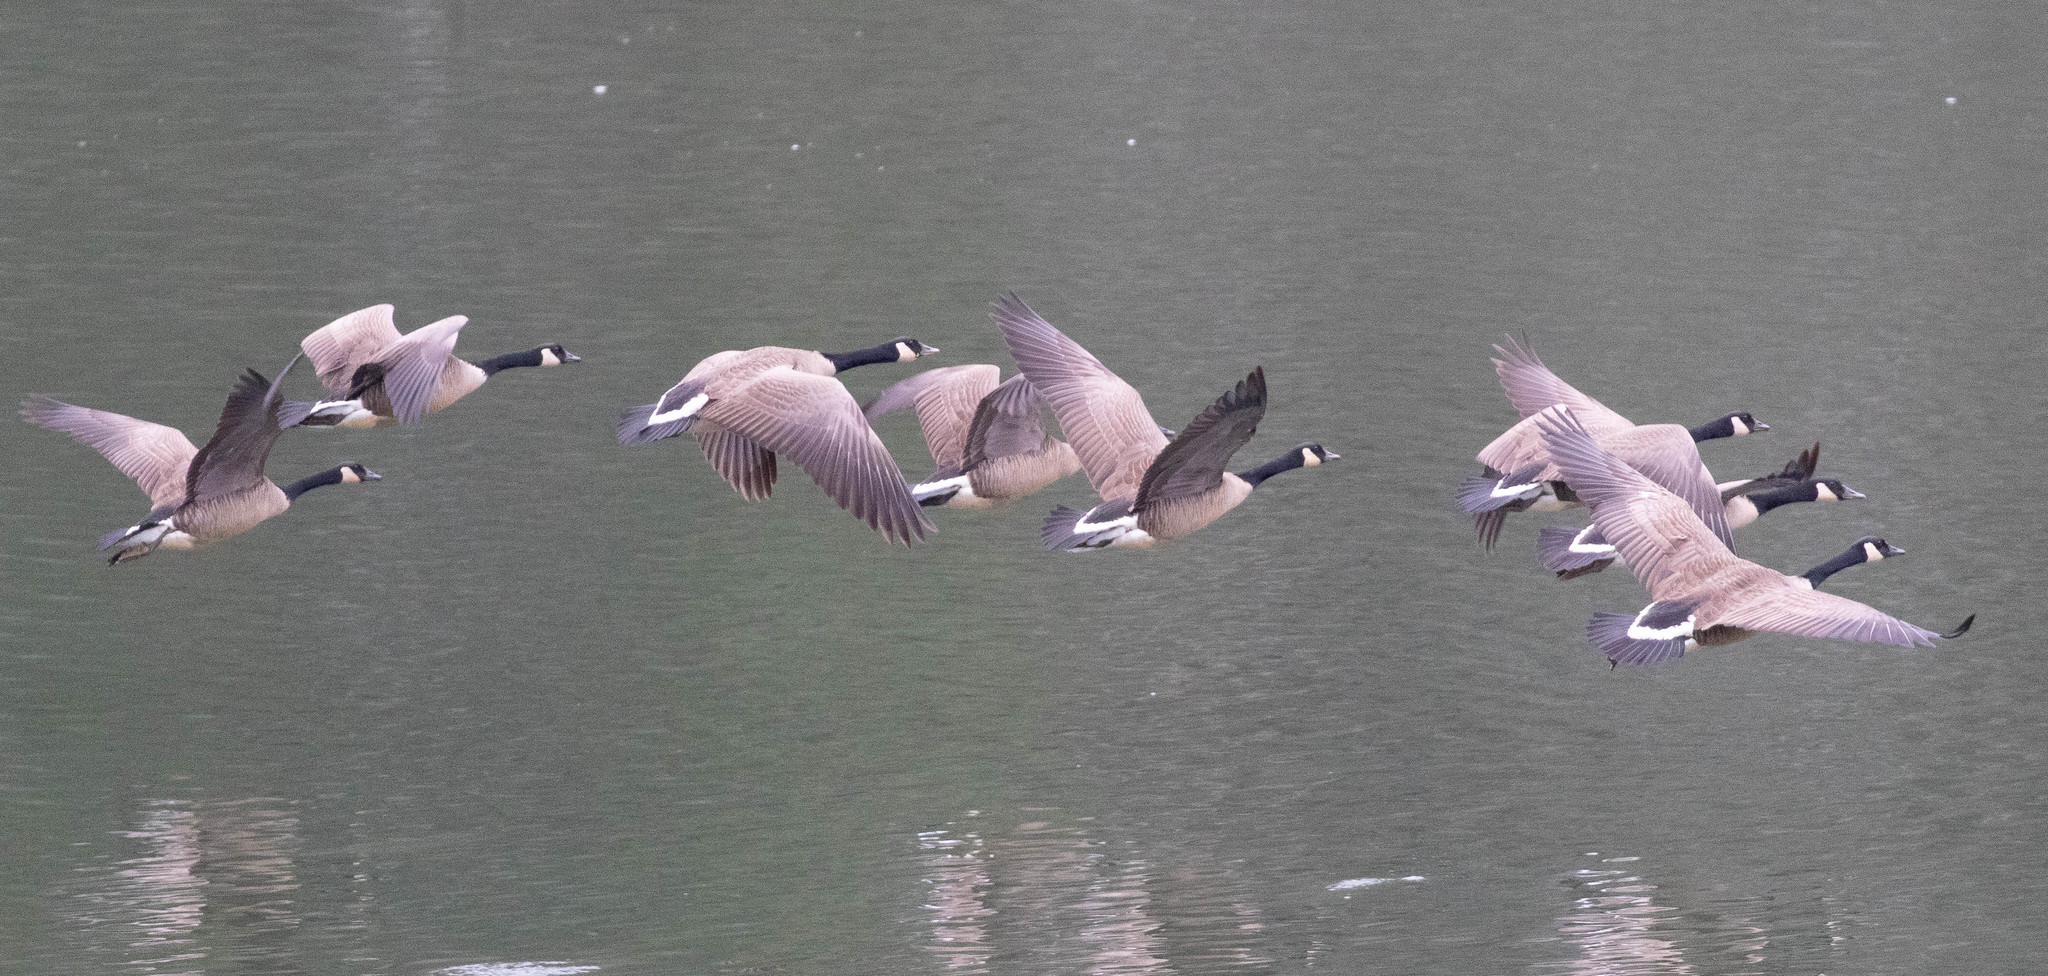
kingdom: Animalia
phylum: Chordata
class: Aves
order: Anseriformes
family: Anatidae
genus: Branta
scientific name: Branta canadensis
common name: Canada goose
